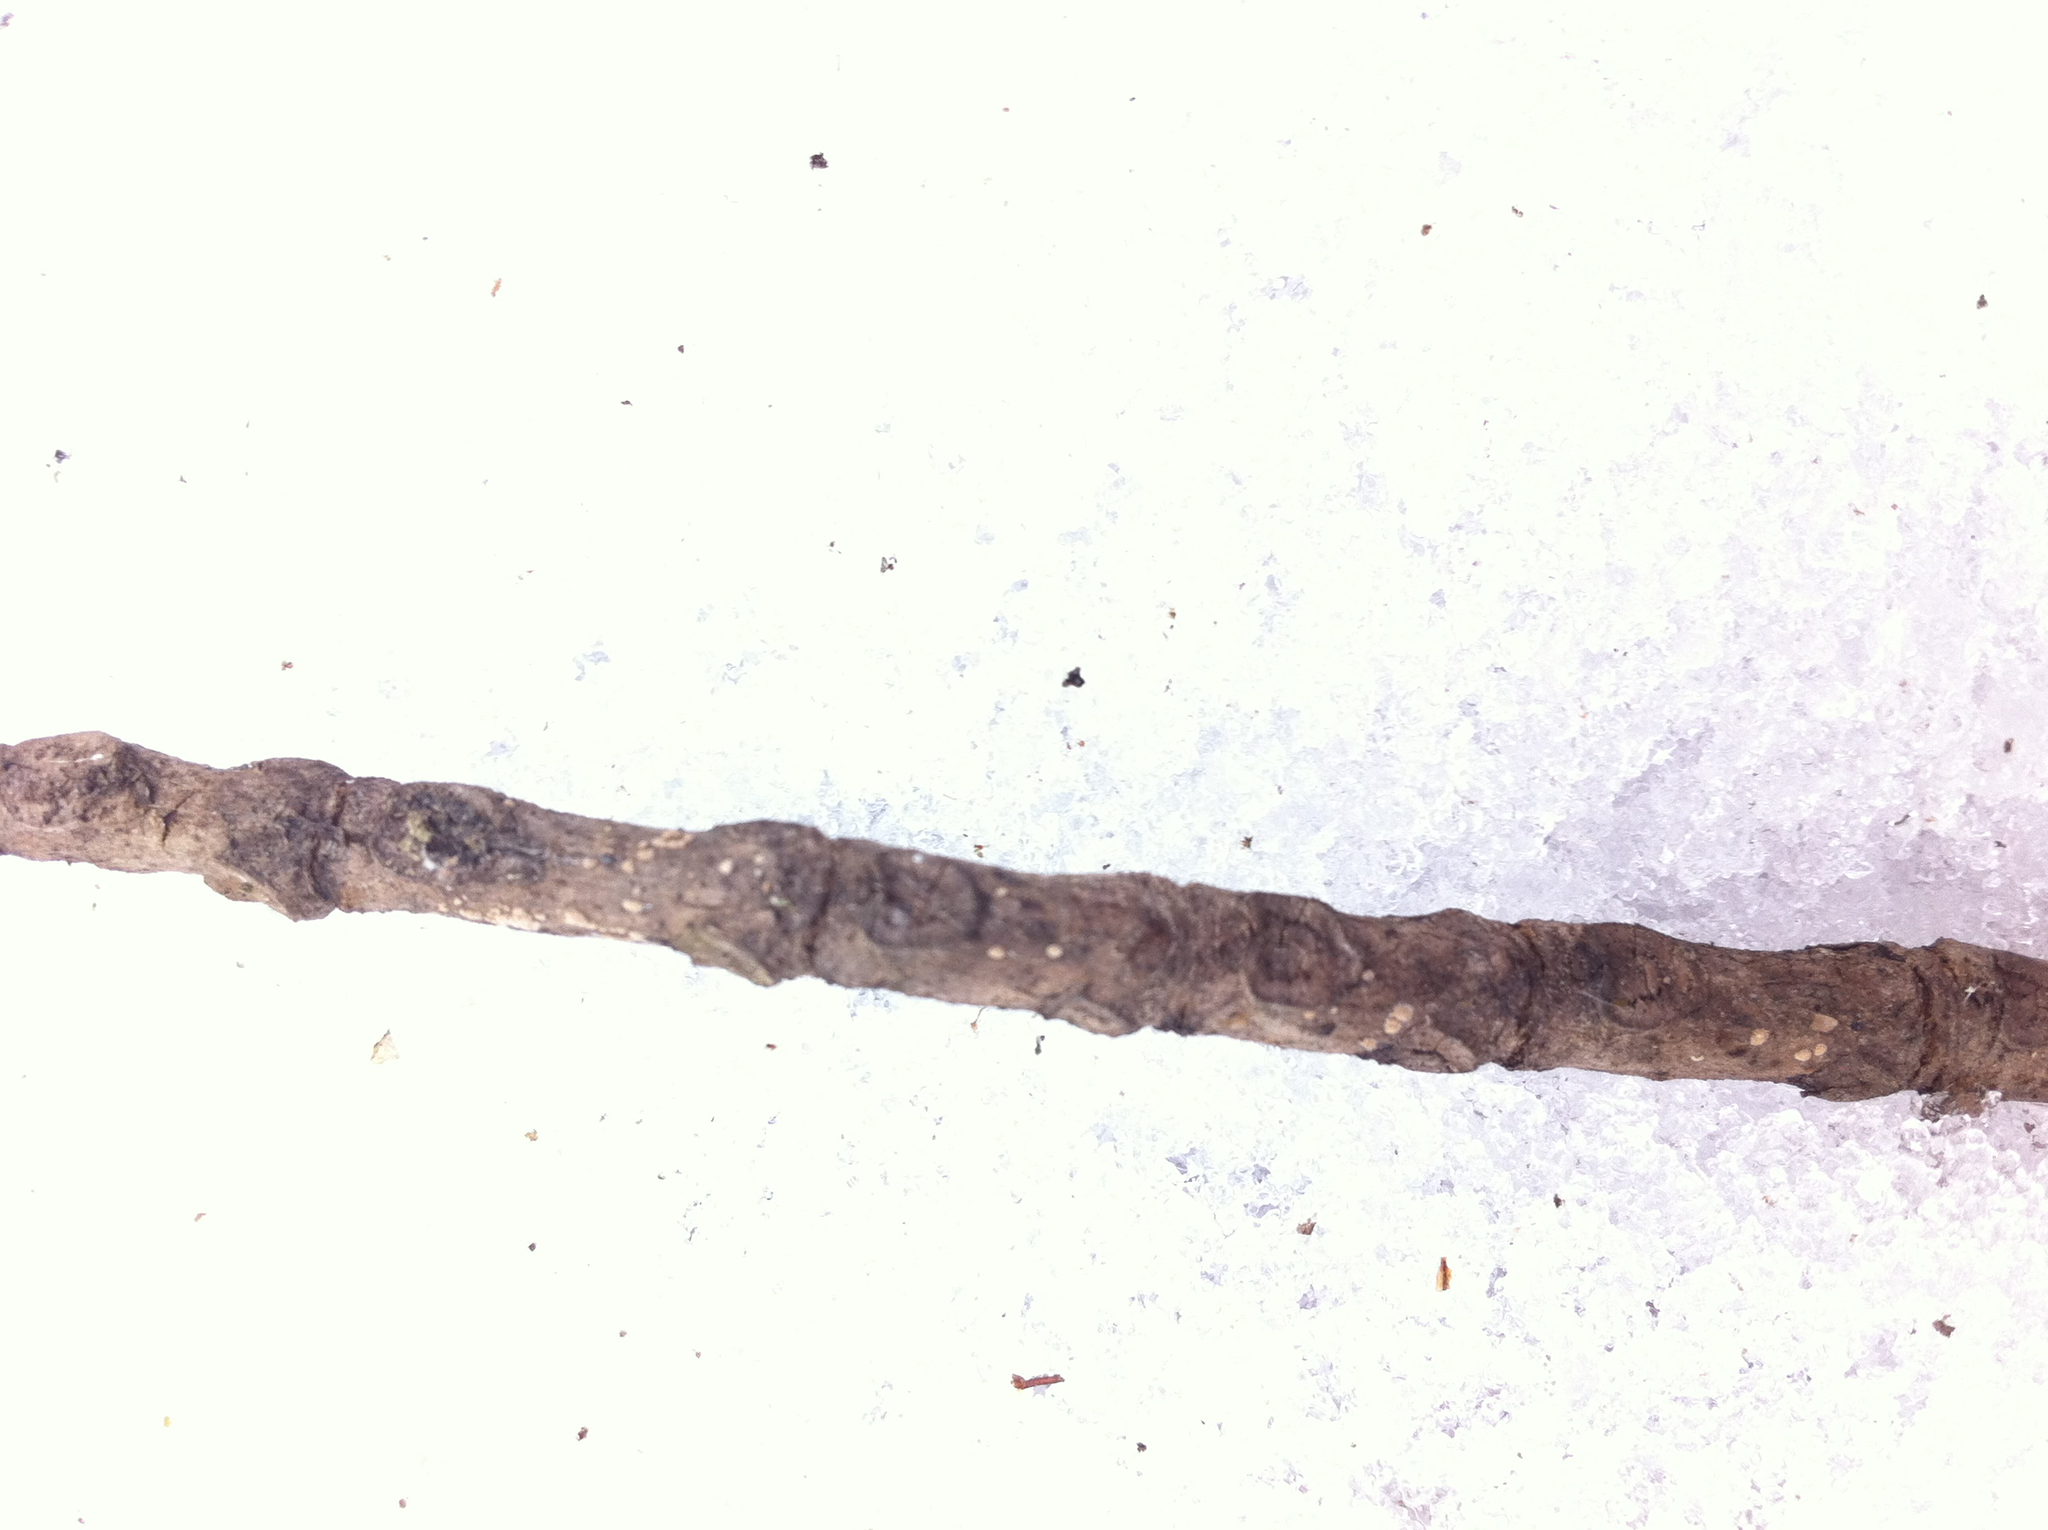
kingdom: Plantae
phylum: Tracheophyta
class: Magnoliopsida
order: Lamiales
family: Oleaceae
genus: Fraxinus
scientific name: Fraxinus nigra
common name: Black ash
